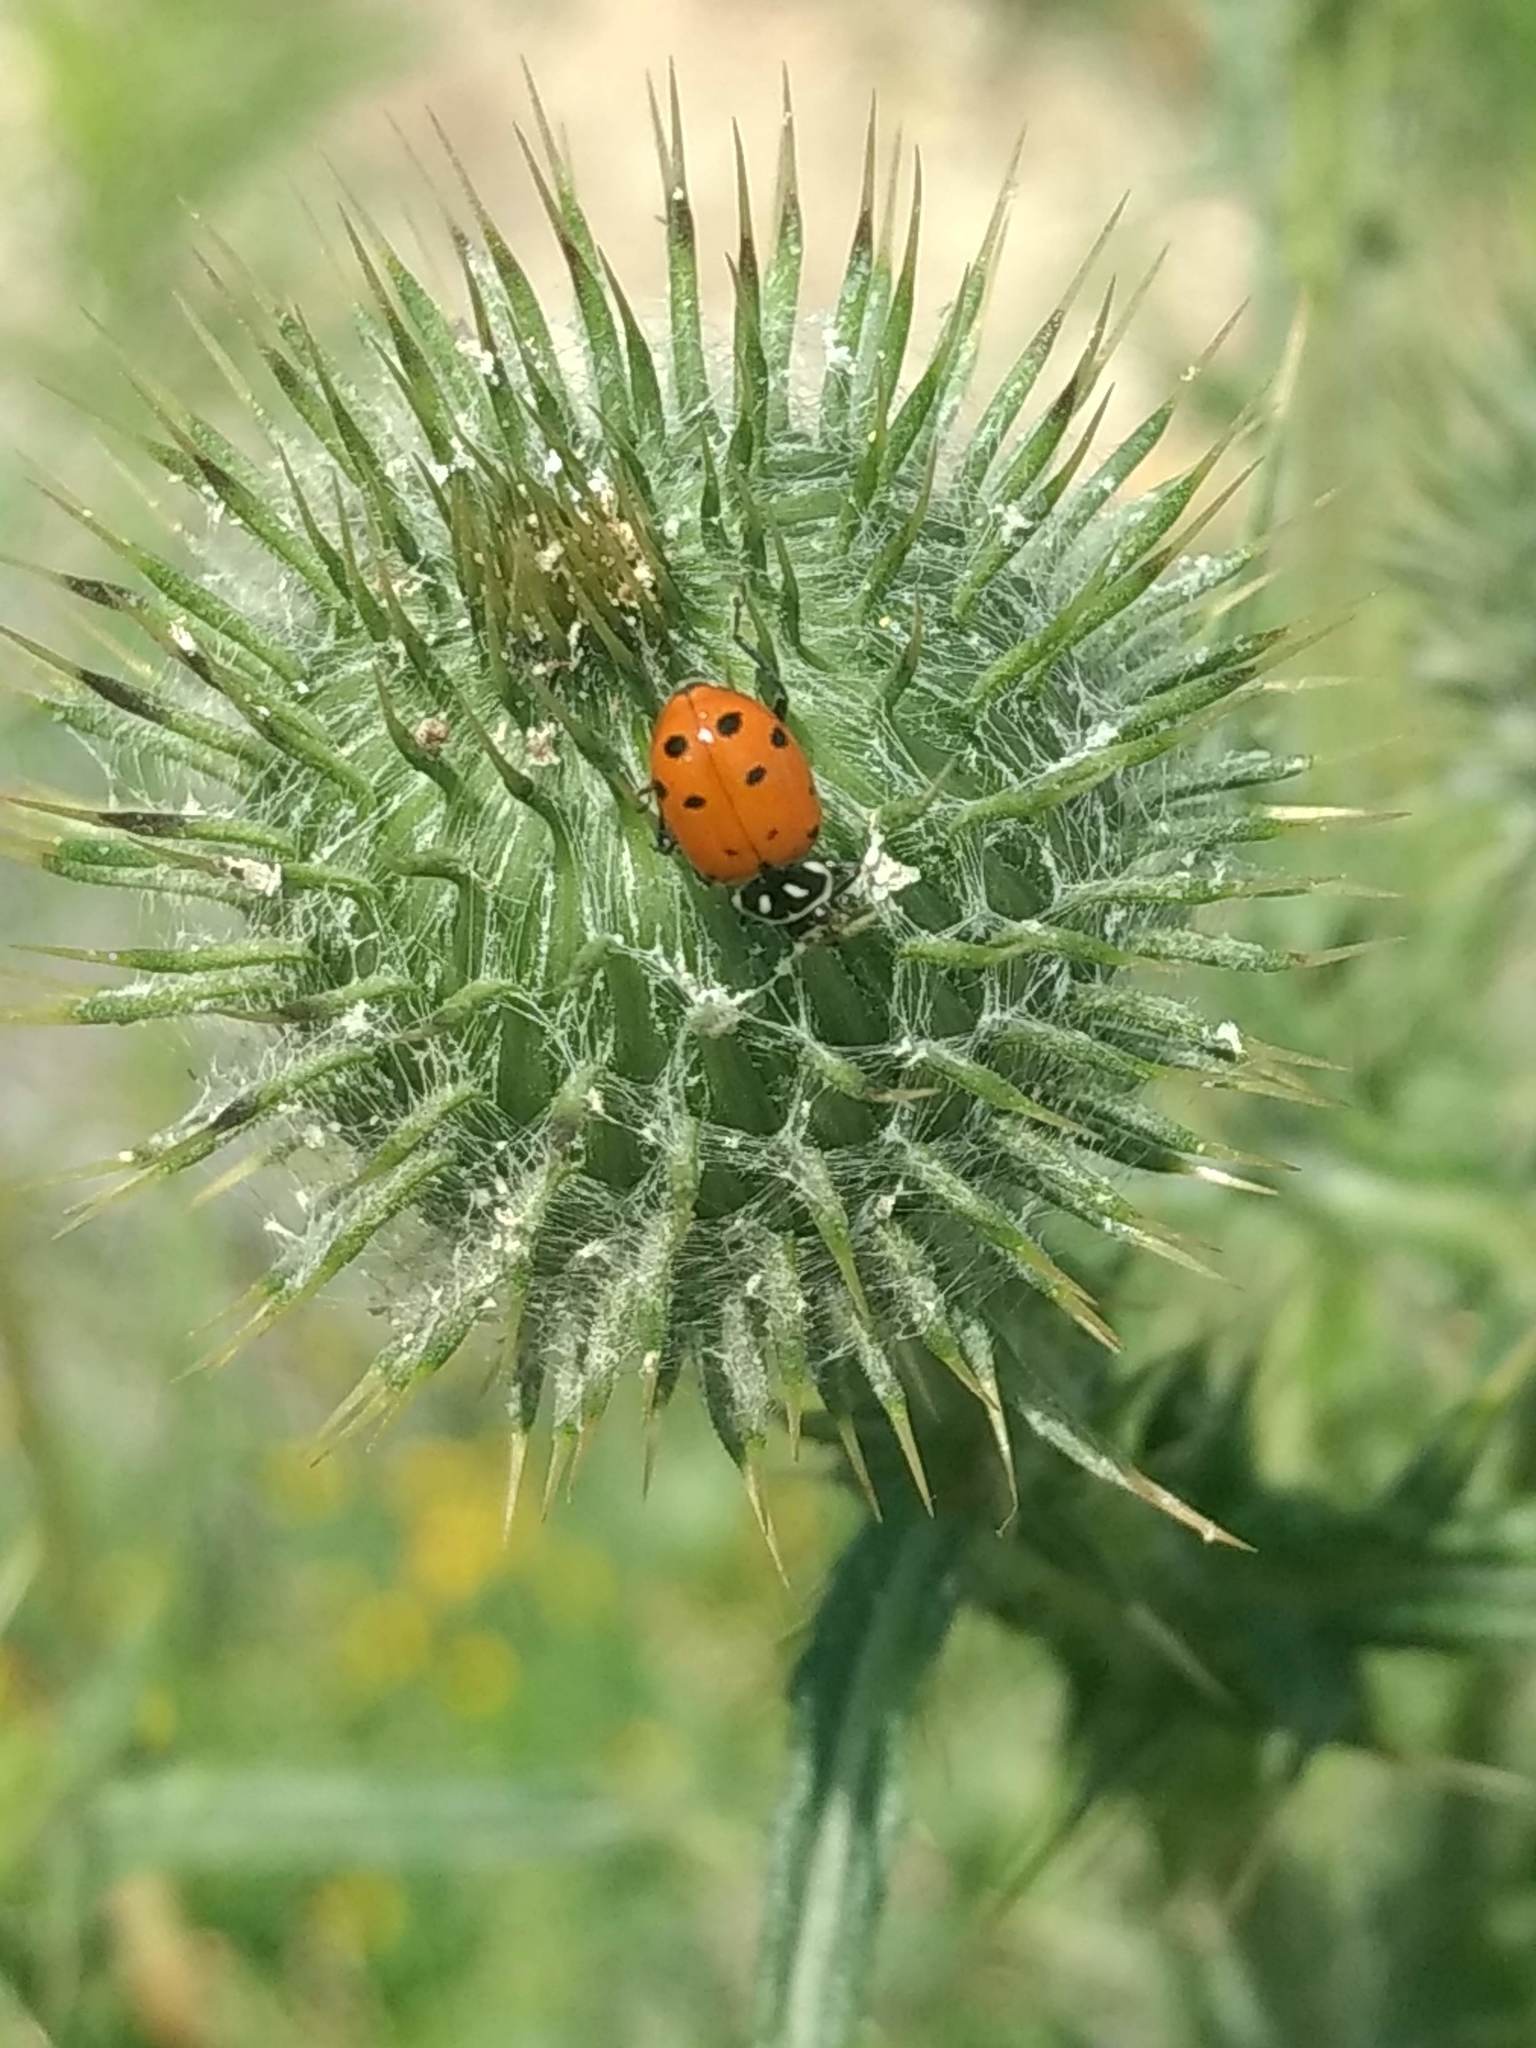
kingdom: Animalia
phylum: Arthropoda
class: Insecta
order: Coleoptera
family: Coccinellidae
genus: Hippodamia
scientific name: Hippodamia convergens
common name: Convergent lady beetle
